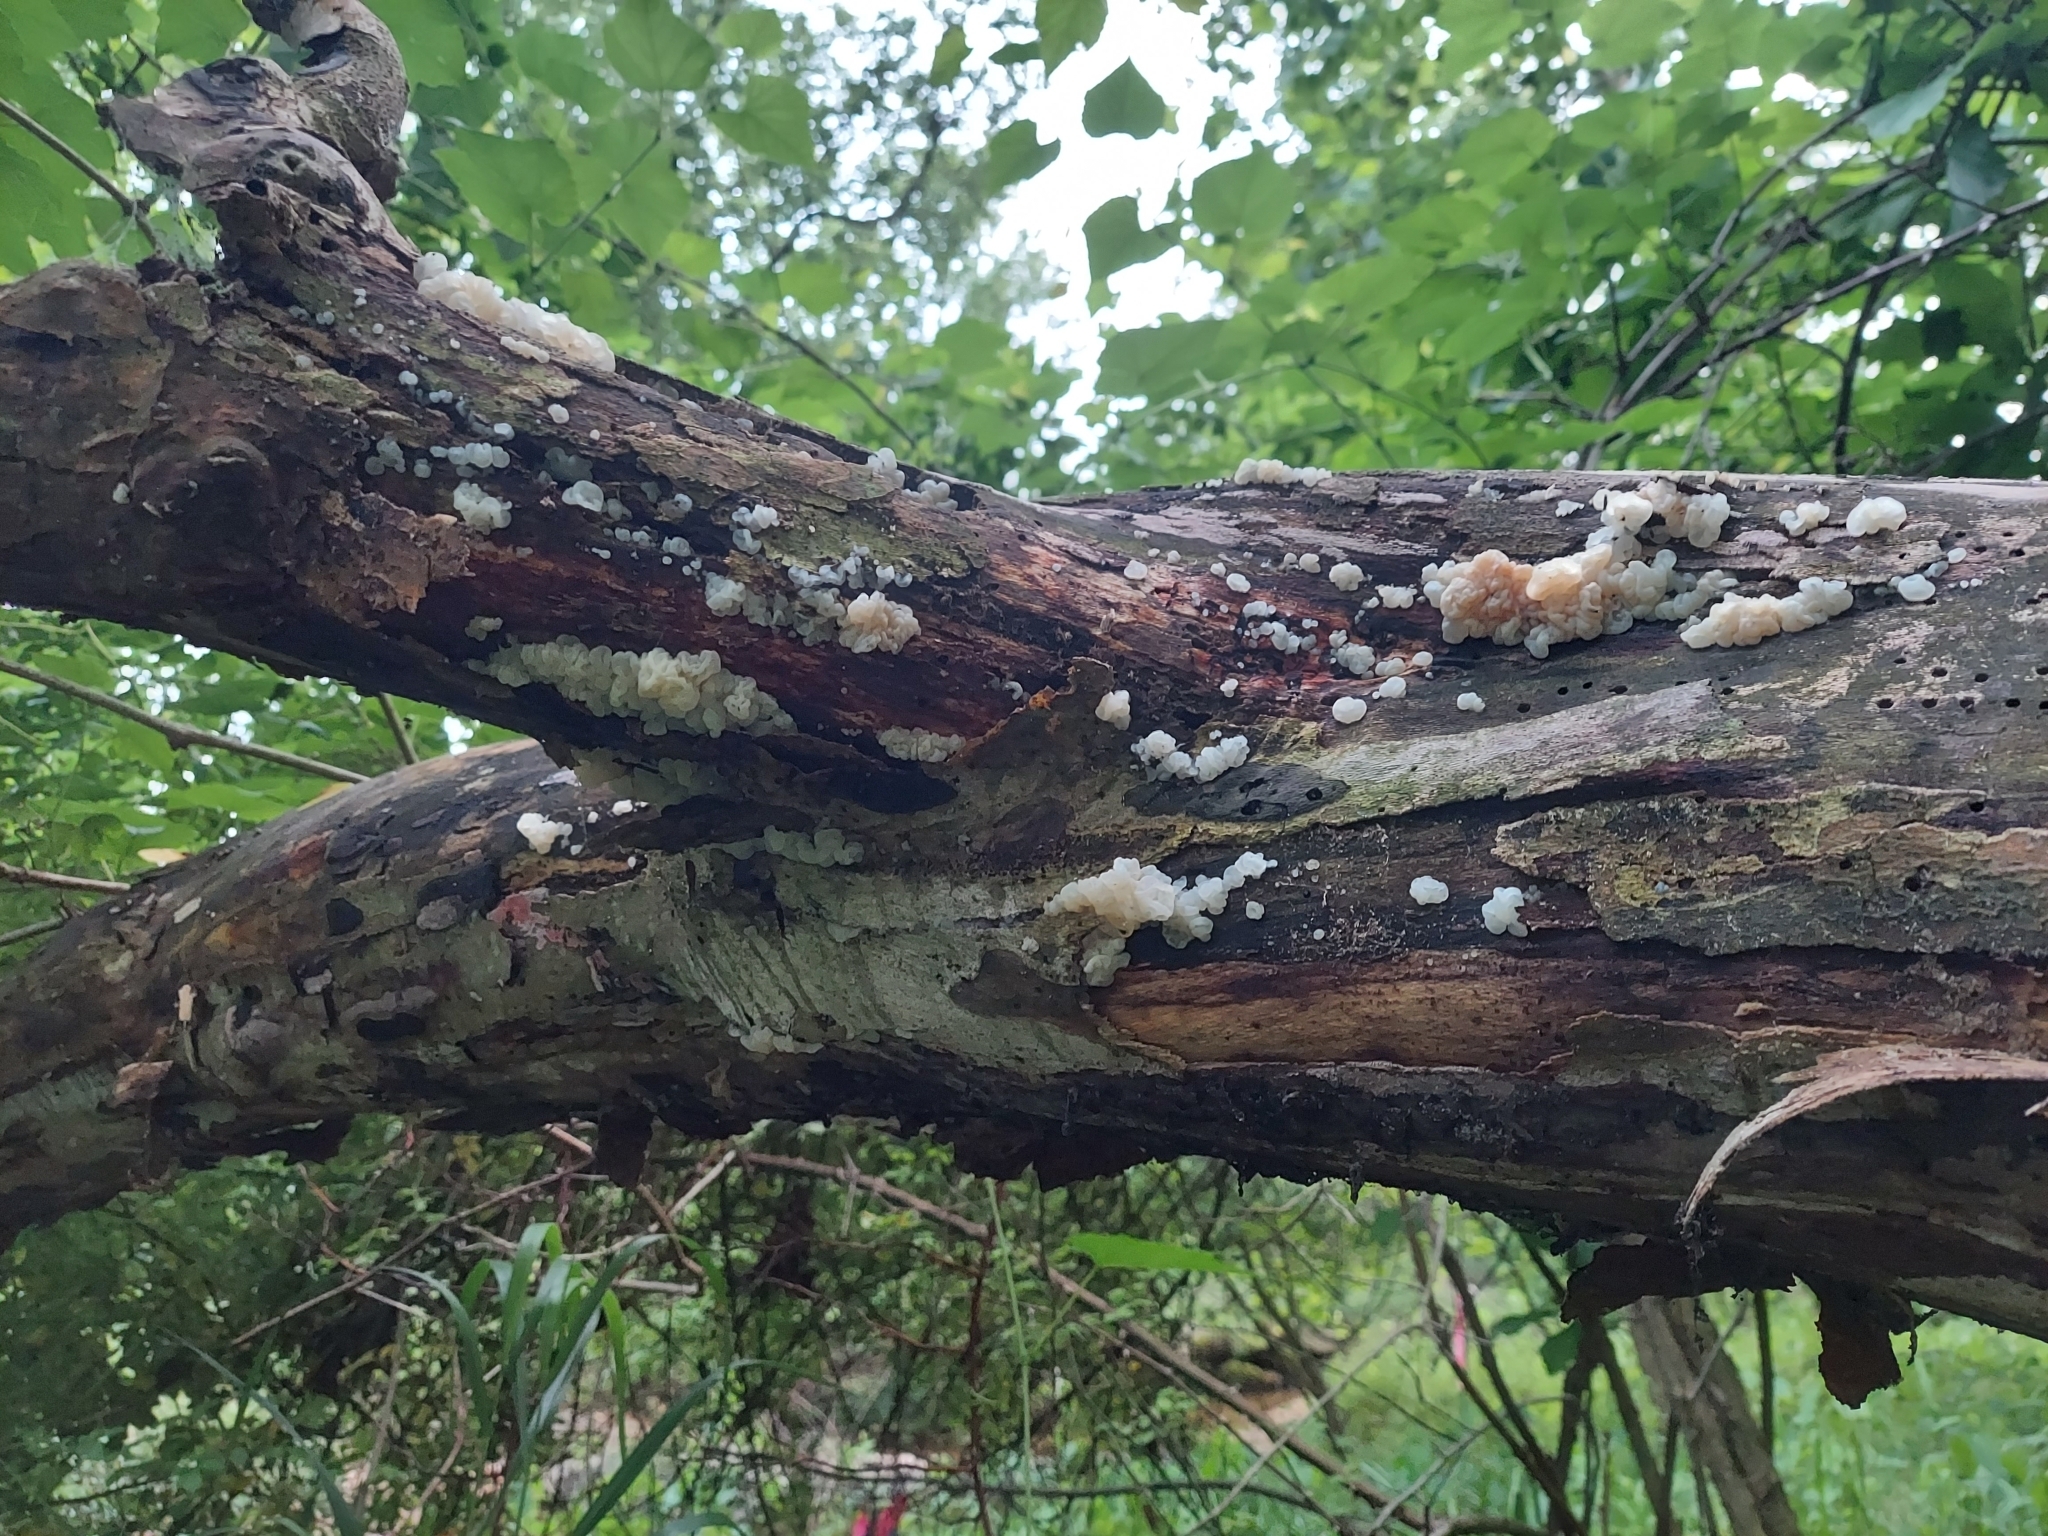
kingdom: Fungi
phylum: Basidiomycota
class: Agaricomycetes
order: Auriculariales
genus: Ductifera
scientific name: Ductifera pululahuana
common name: White jelly fungus
